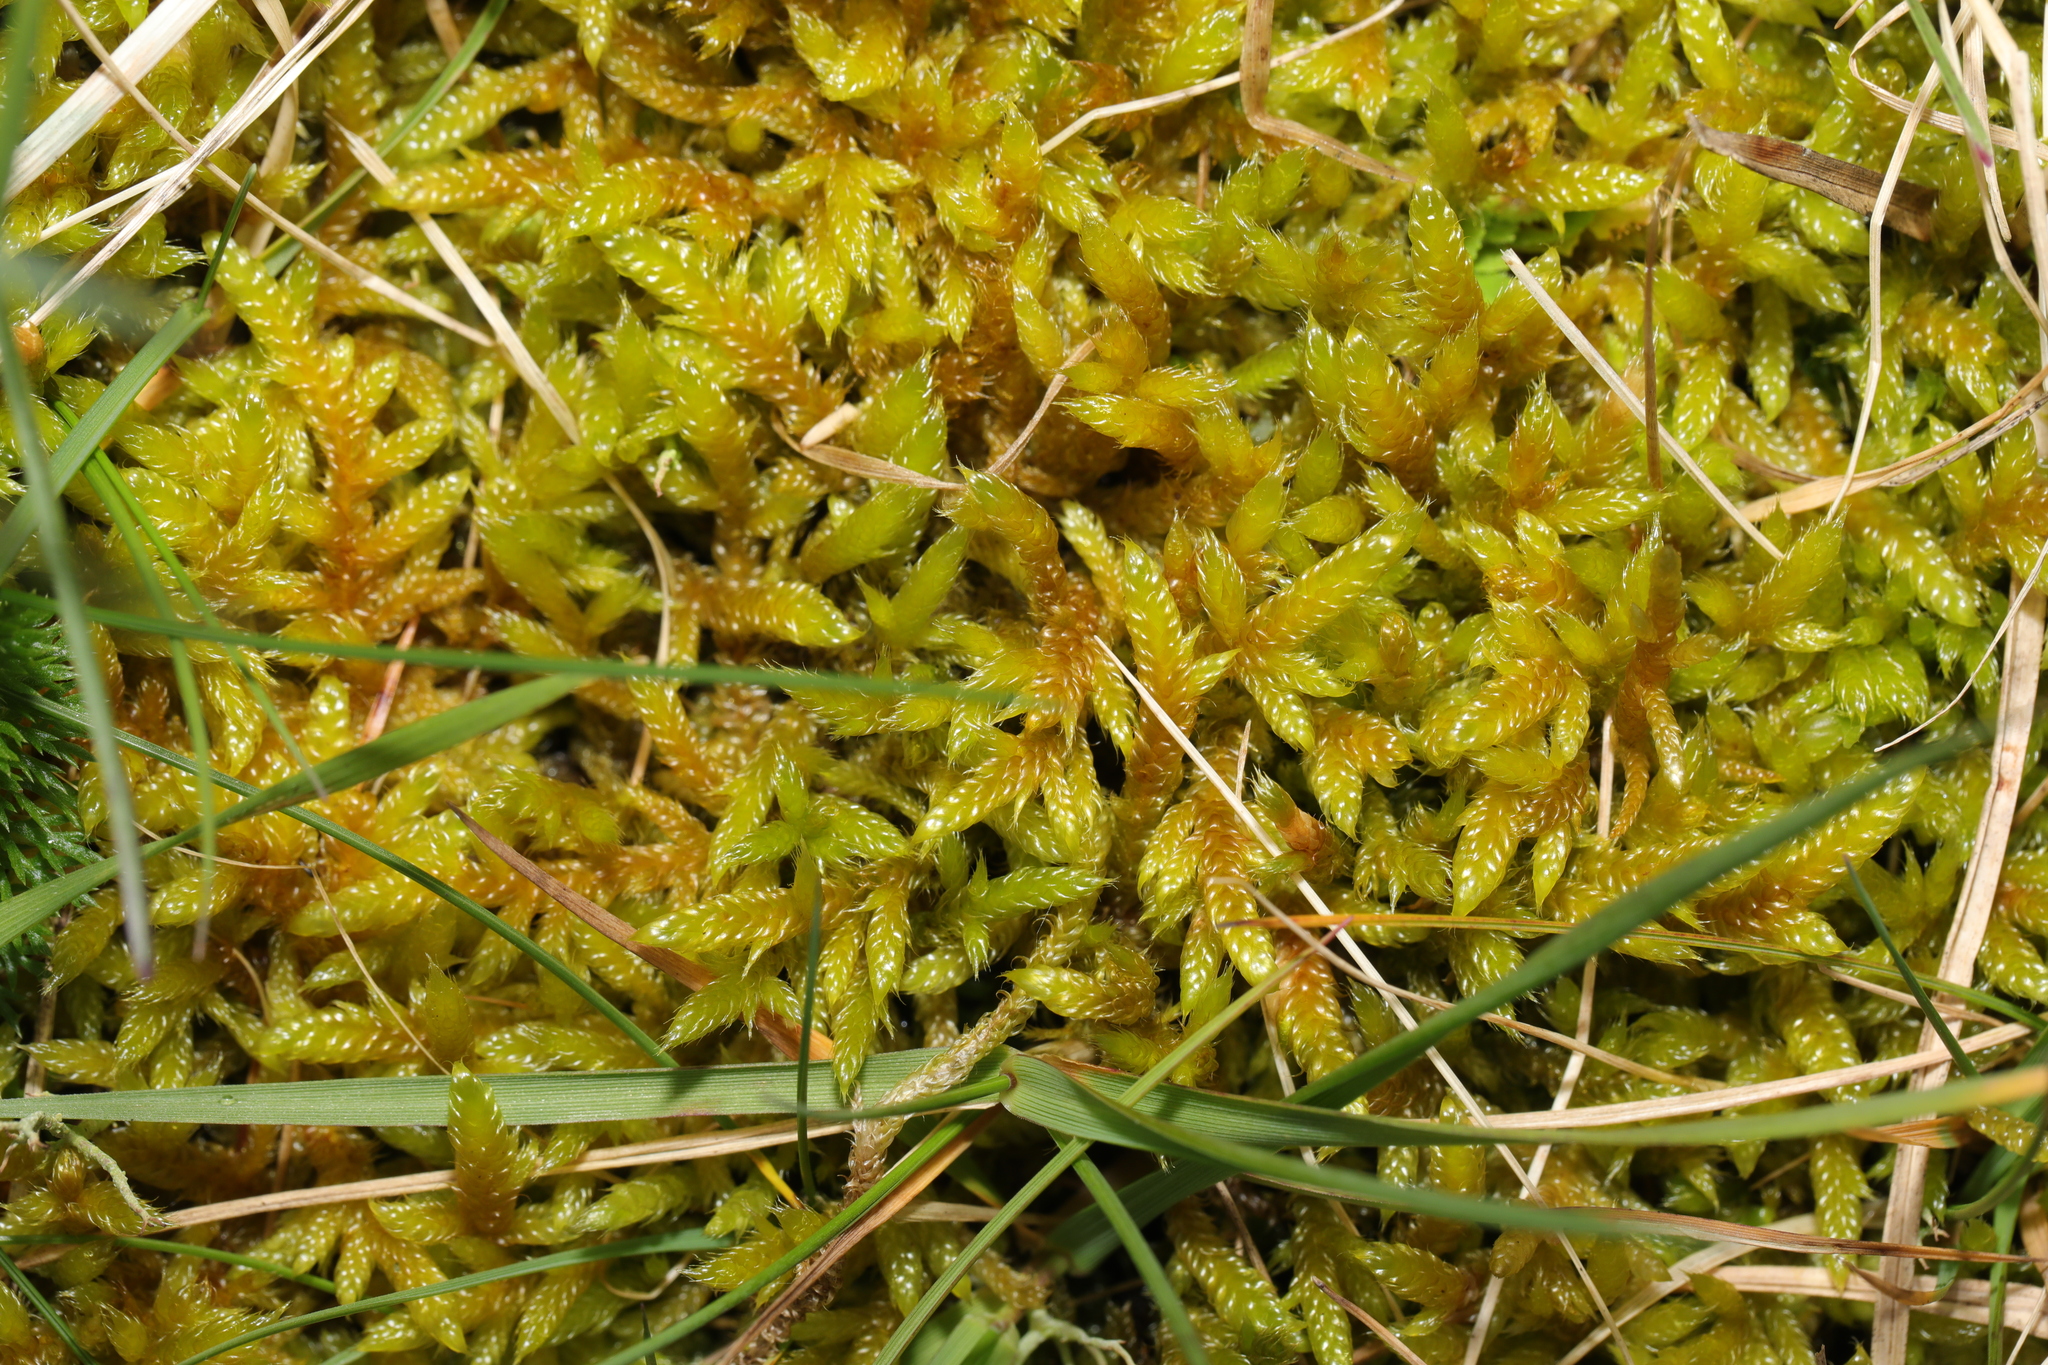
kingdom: Plantae
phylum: Bryophyta
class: Bryopsida
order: Hypnales
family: Hypnaceae
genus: Hypnum
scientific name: Hypnum cupressiforme
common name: Cypress-leaved plait-moss
